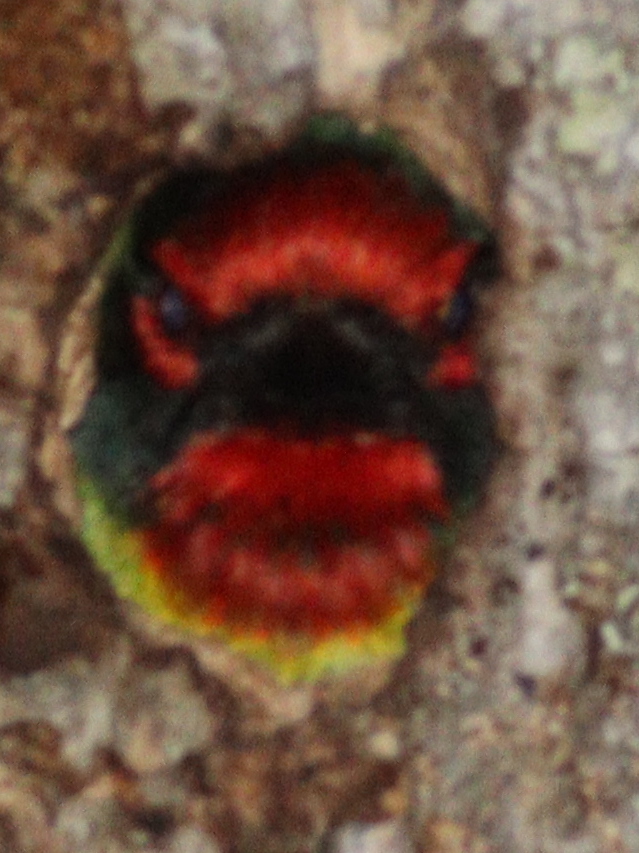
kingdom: Animalia
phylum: Chordata
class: Aves
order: Piciformes
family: Megalaimidae
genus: Psilopogon
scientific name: Psilopogon haemacephalus
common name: Coppersmith barbet
